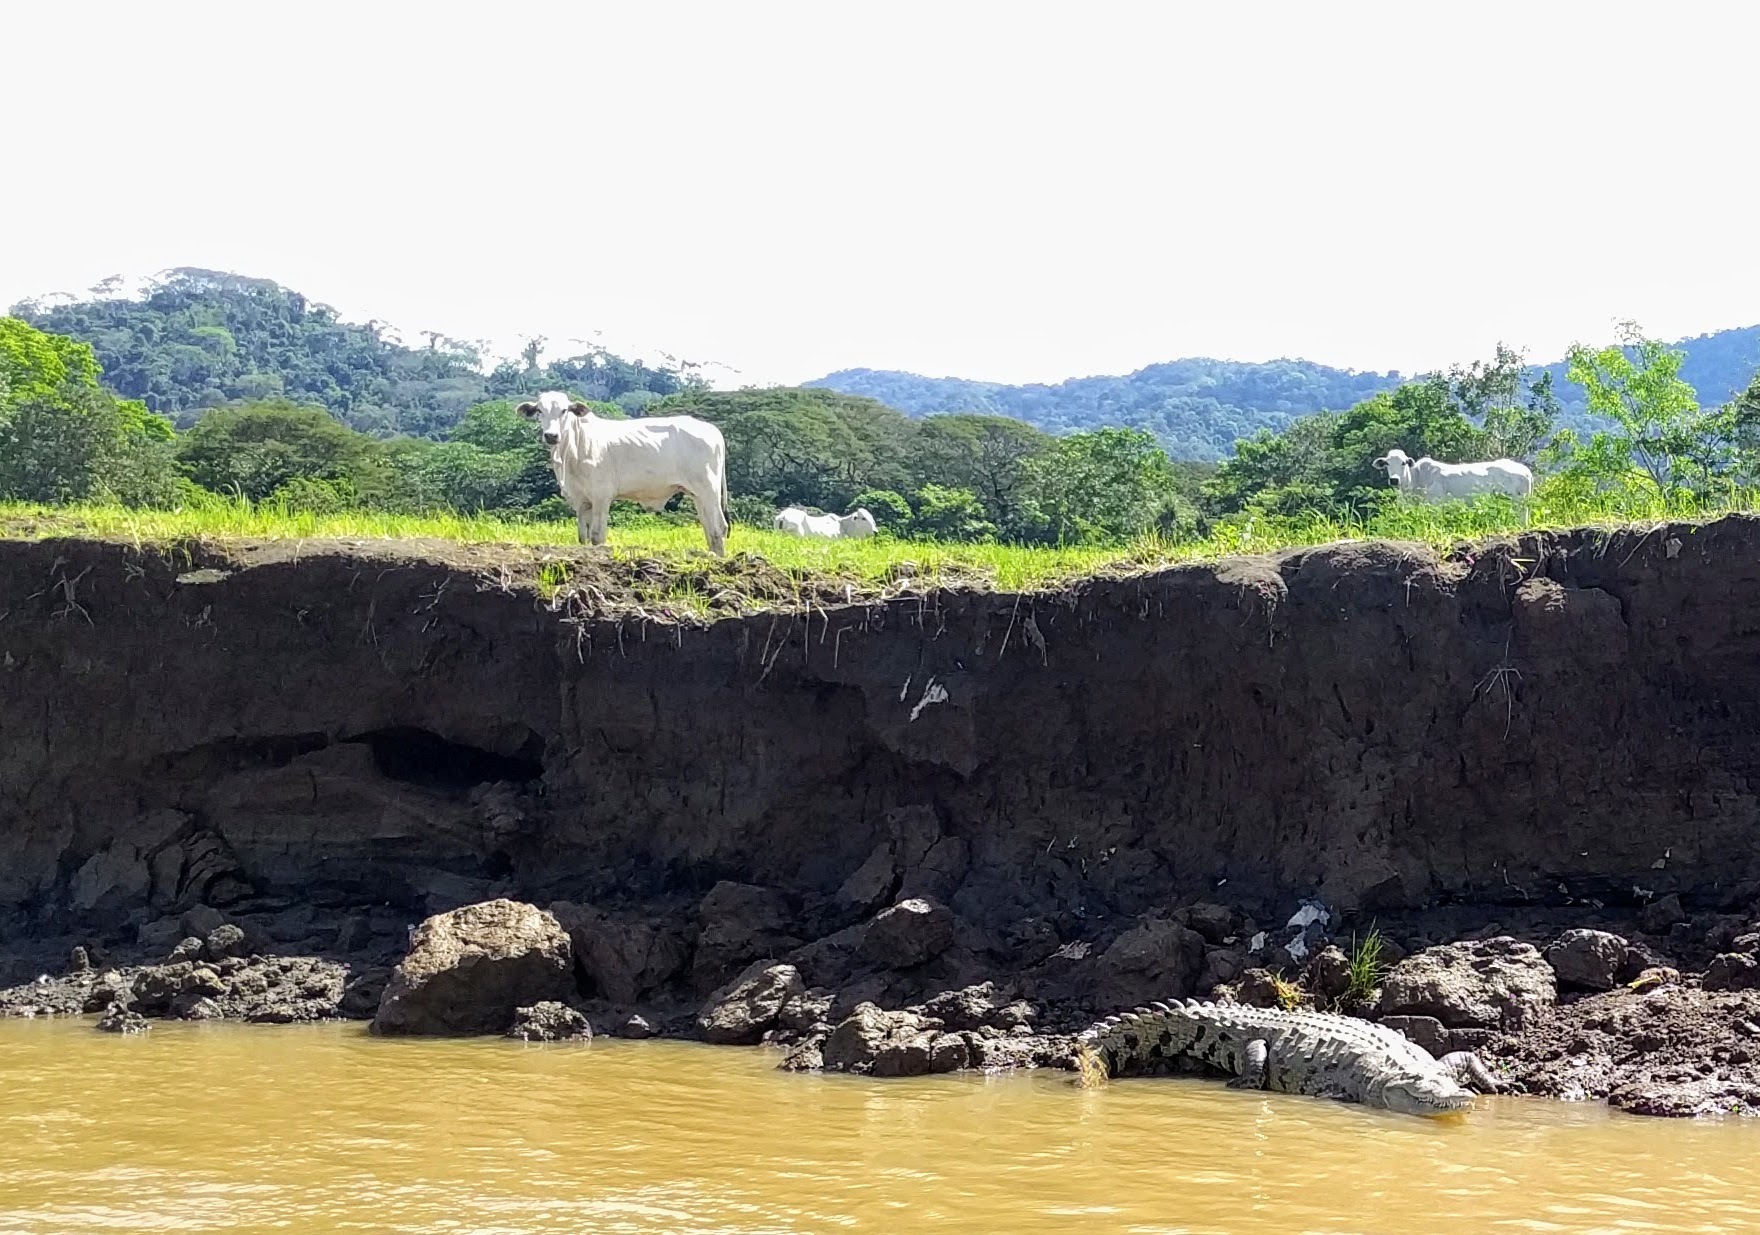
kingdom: Animalia
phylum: Chordata
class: Crocodylia
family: Crocodylidae
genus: Crocodylus
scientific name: Crocodylus acutus
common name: American crocodile
